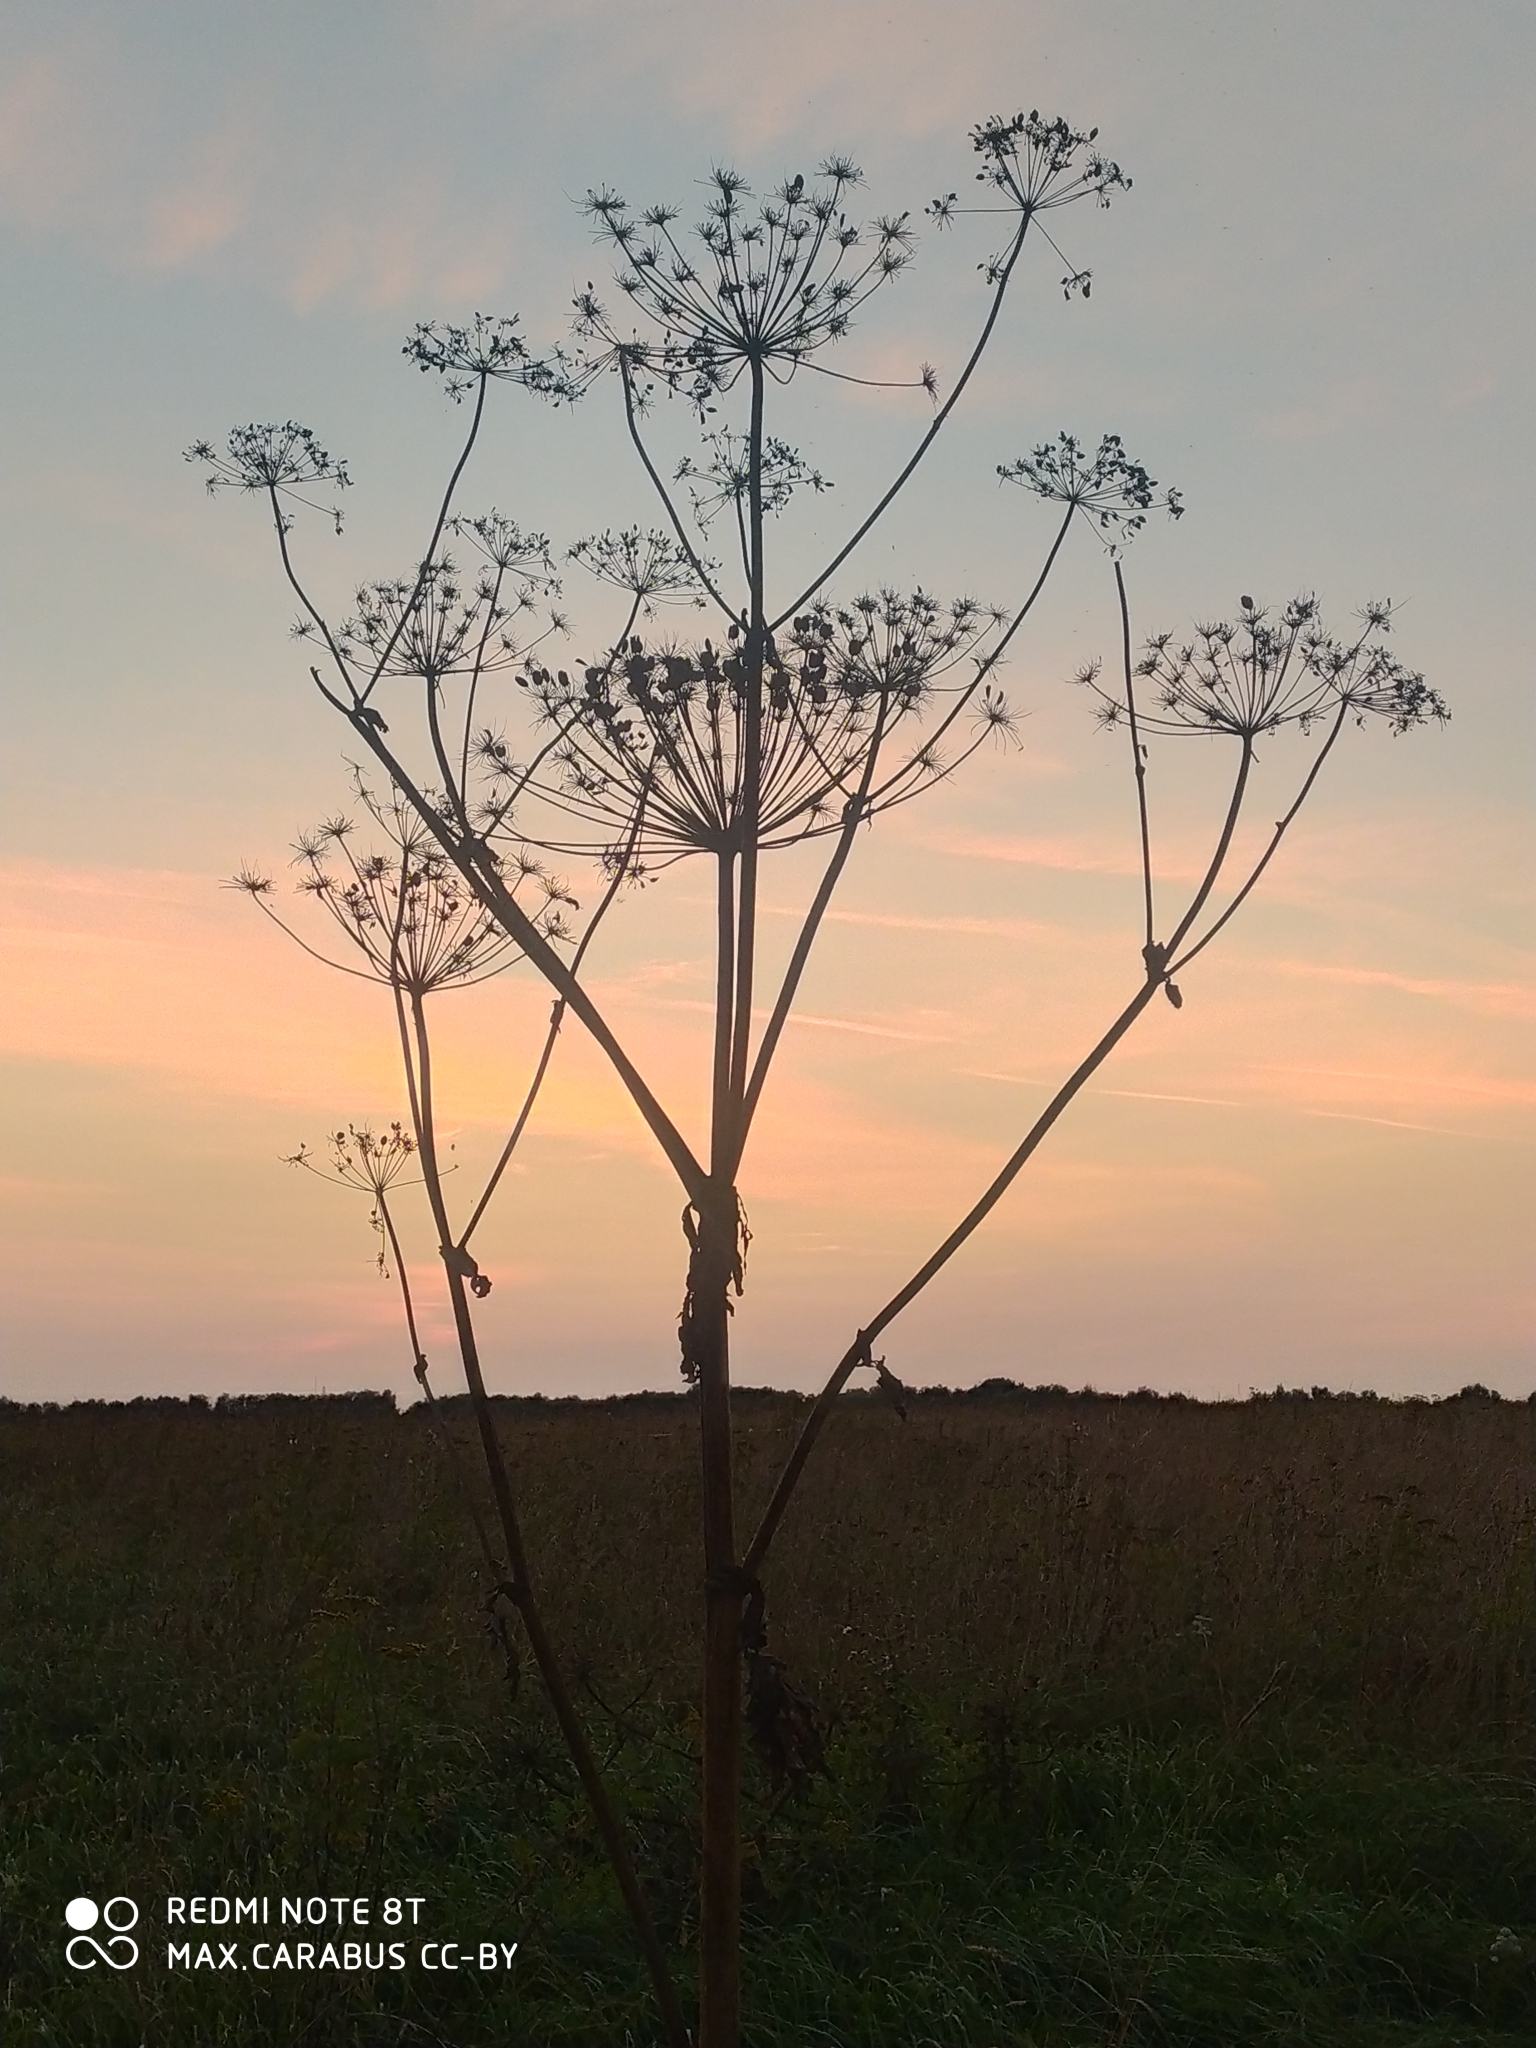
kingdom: Plantae
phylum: Tracheophyta
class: Magnoliopsida
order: Apiales
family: Apiaceae
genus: Heracleum
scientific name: Heracleum sosnowskyi
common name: Sosnowsky's hogweed
